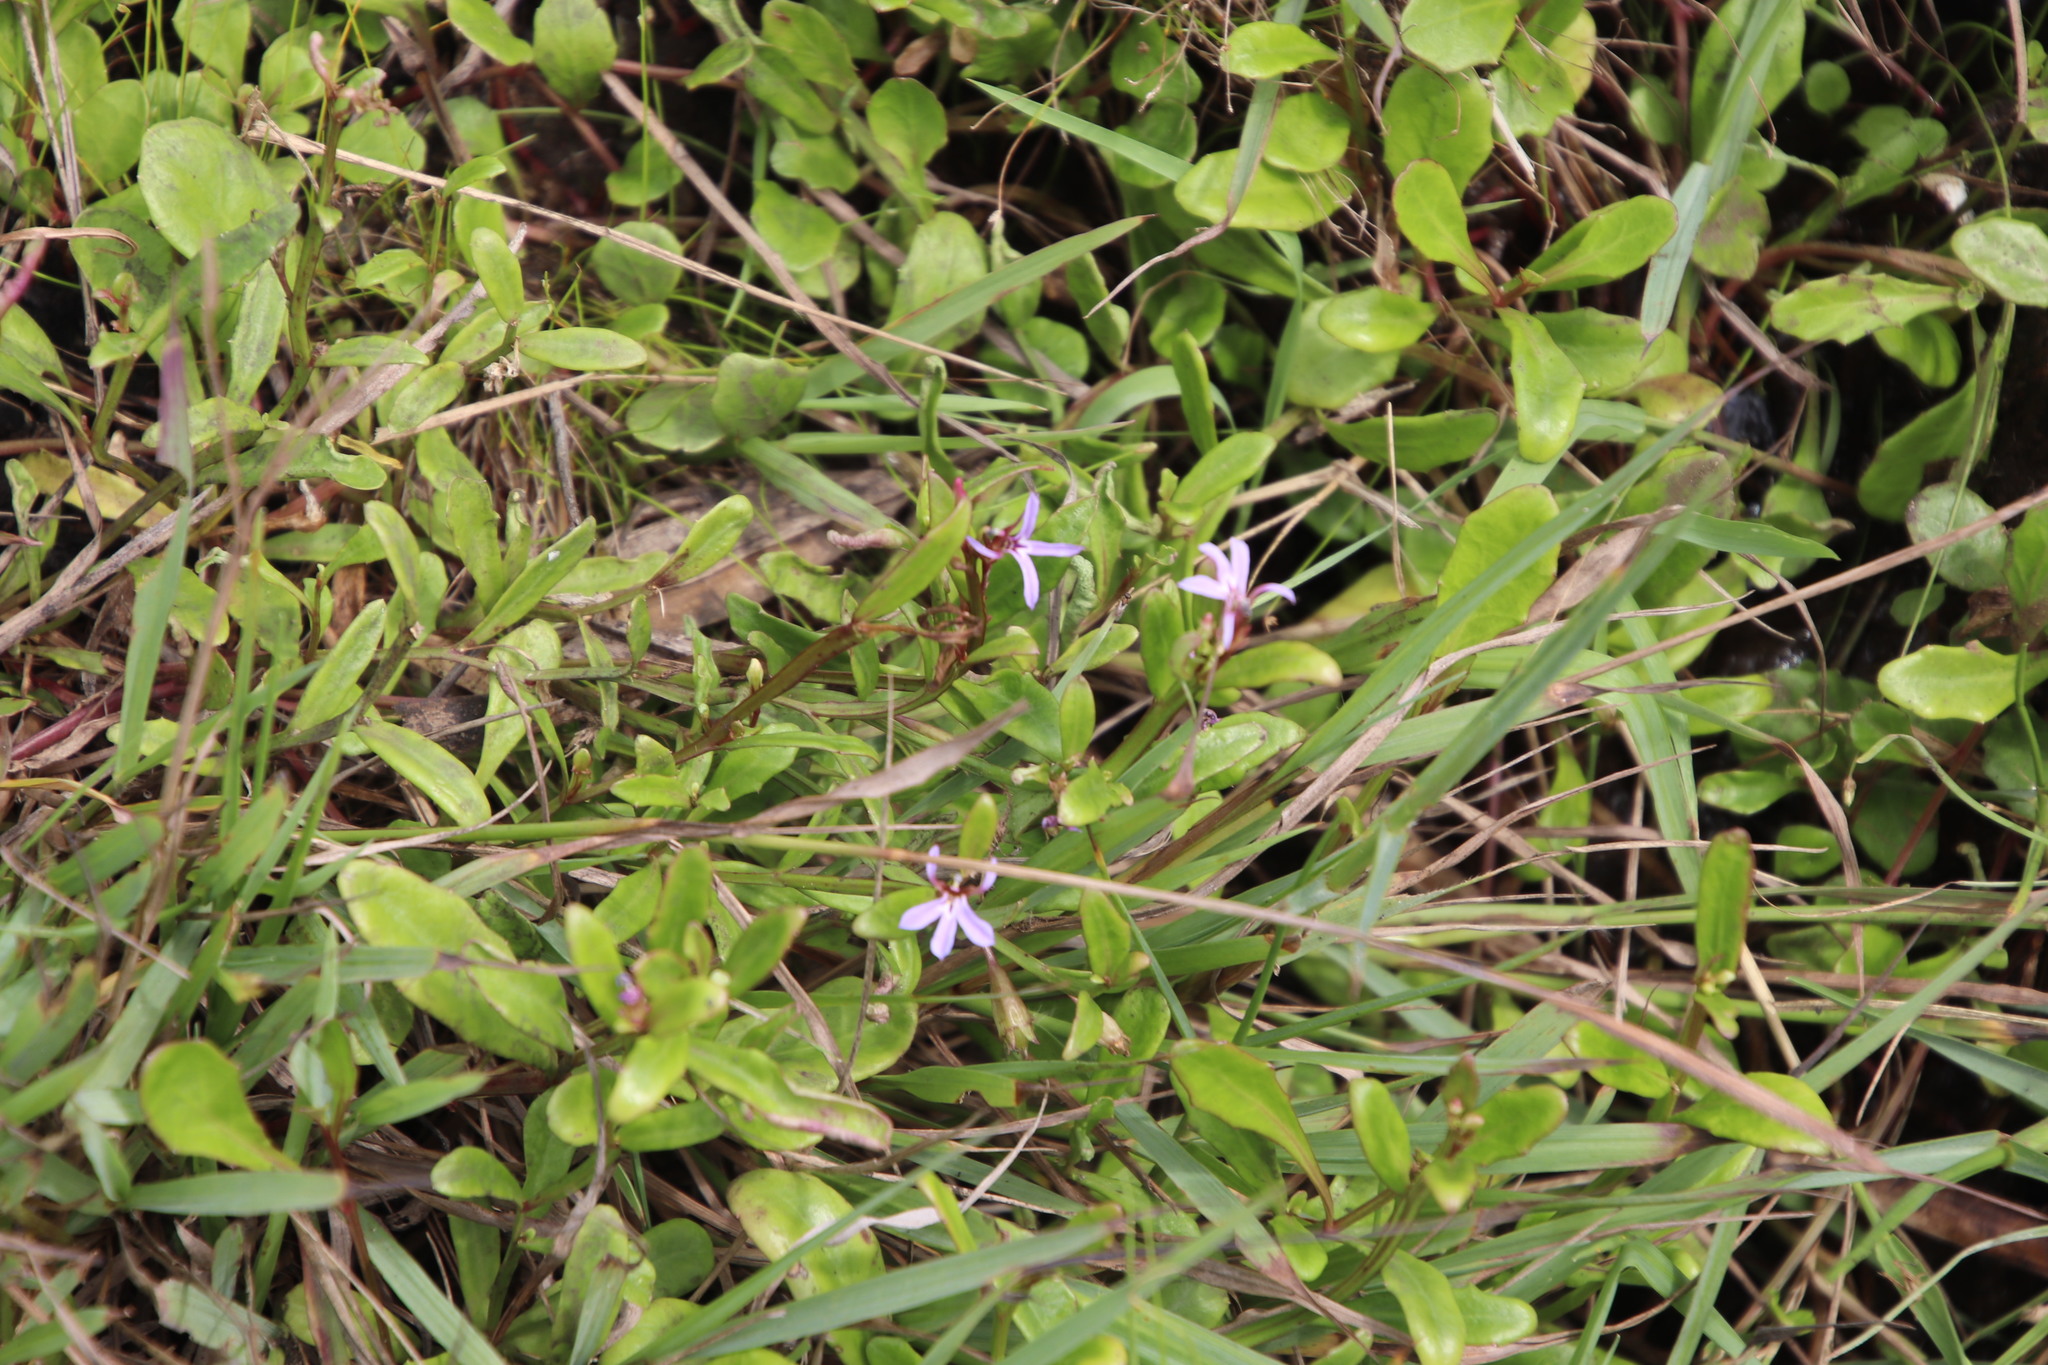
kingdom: Plantae
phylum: Tracheophyta
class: Magnoliopsida
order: Asterales
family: Campanulaceae
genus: Lobelia
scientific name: Lobelia anceps
